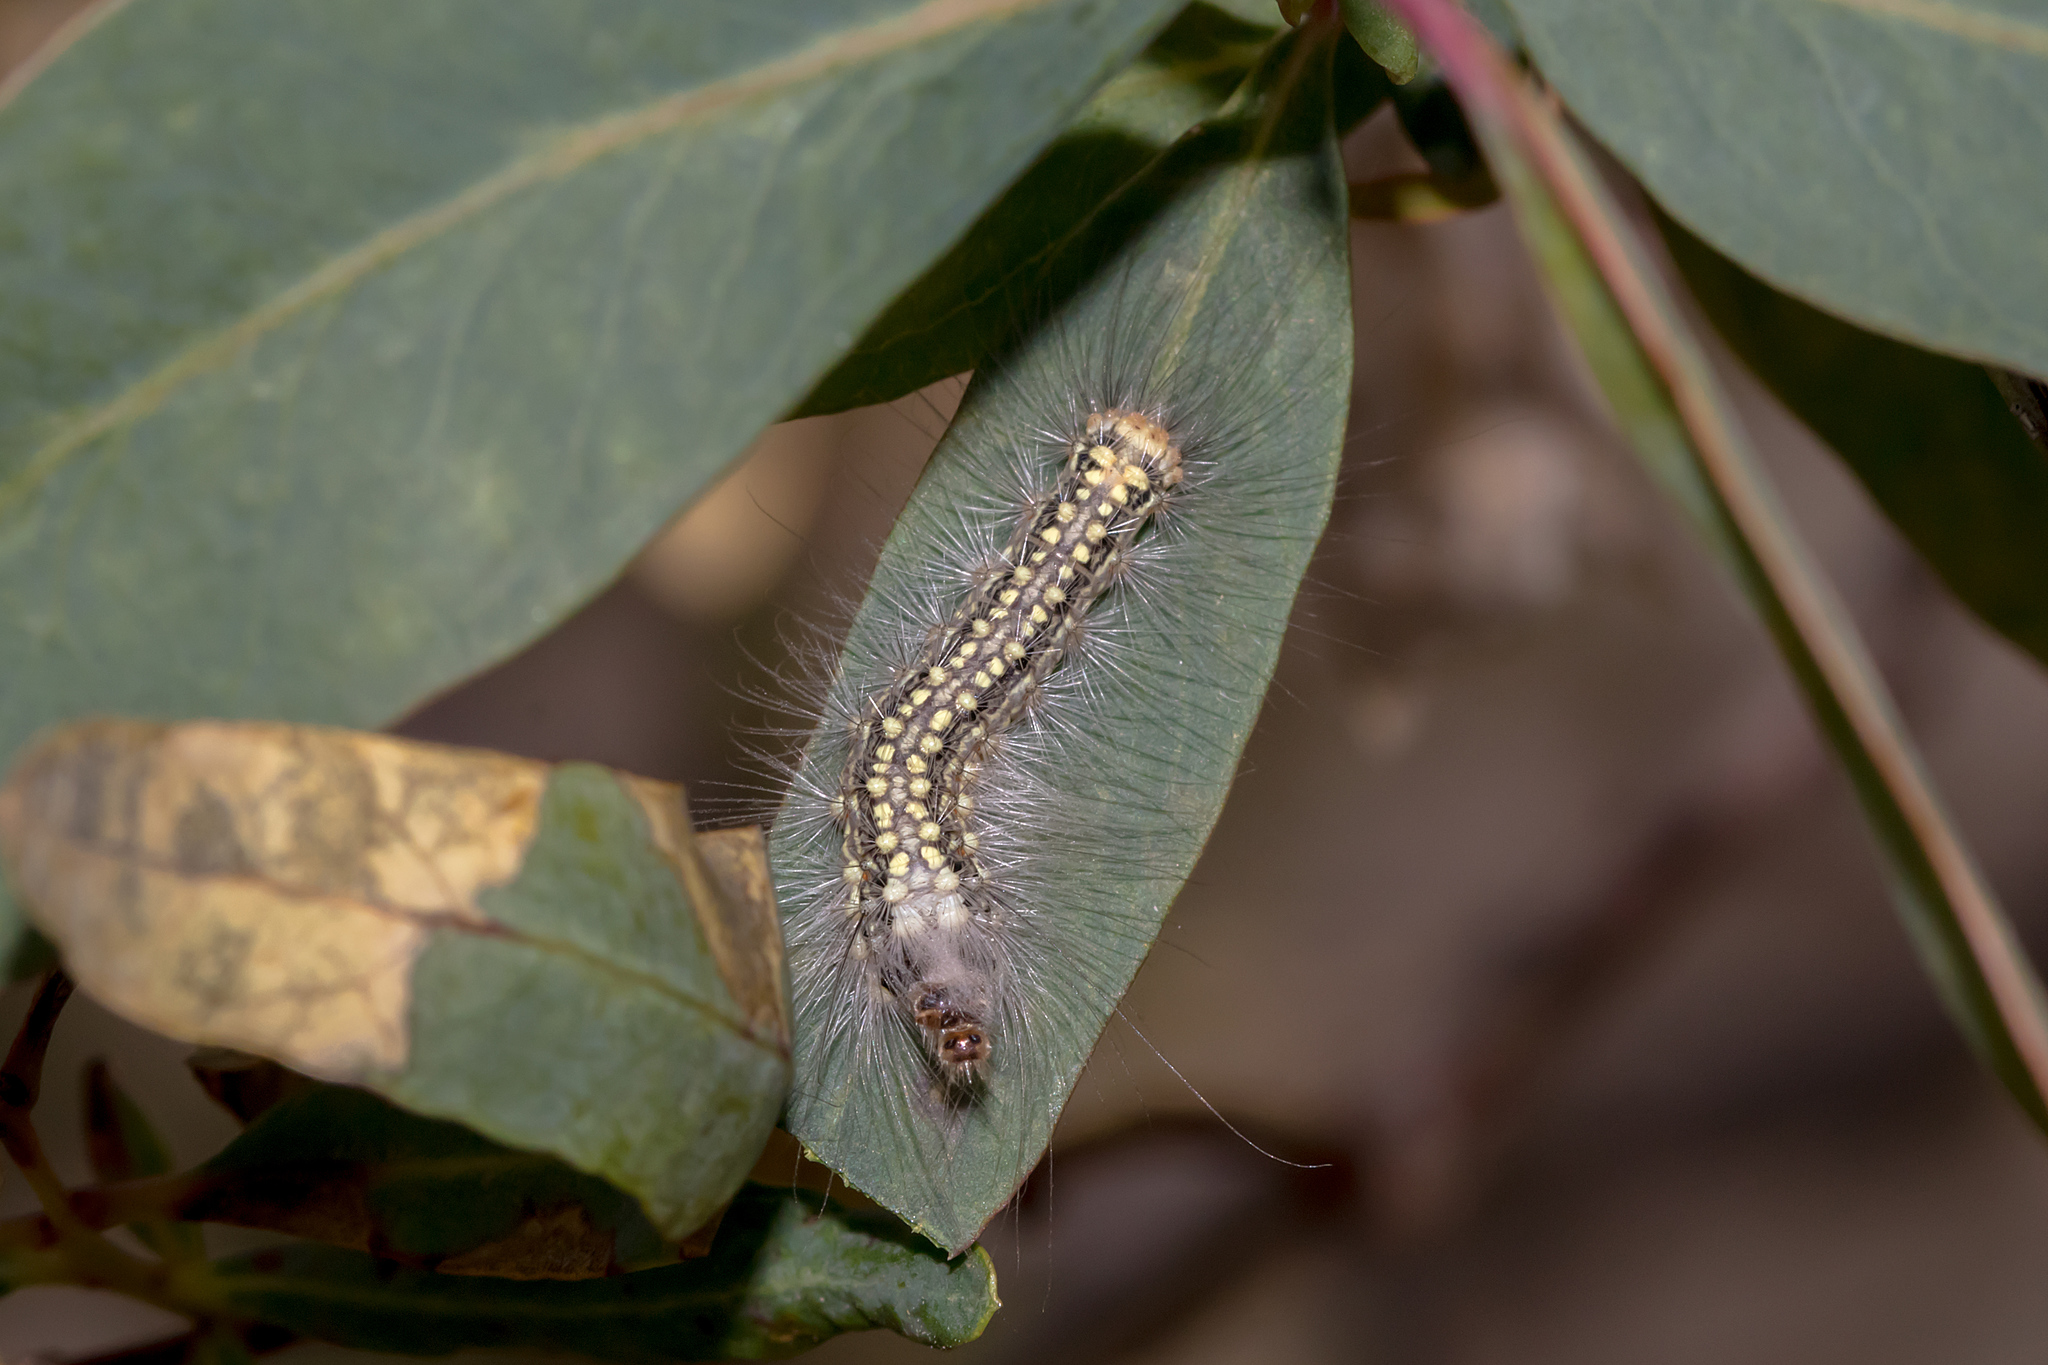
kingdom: Animalia
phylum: Arthropoda
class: Insecta
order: Lepidoptera
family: Nolidae
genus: Uraba
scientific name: Uraba lugens
